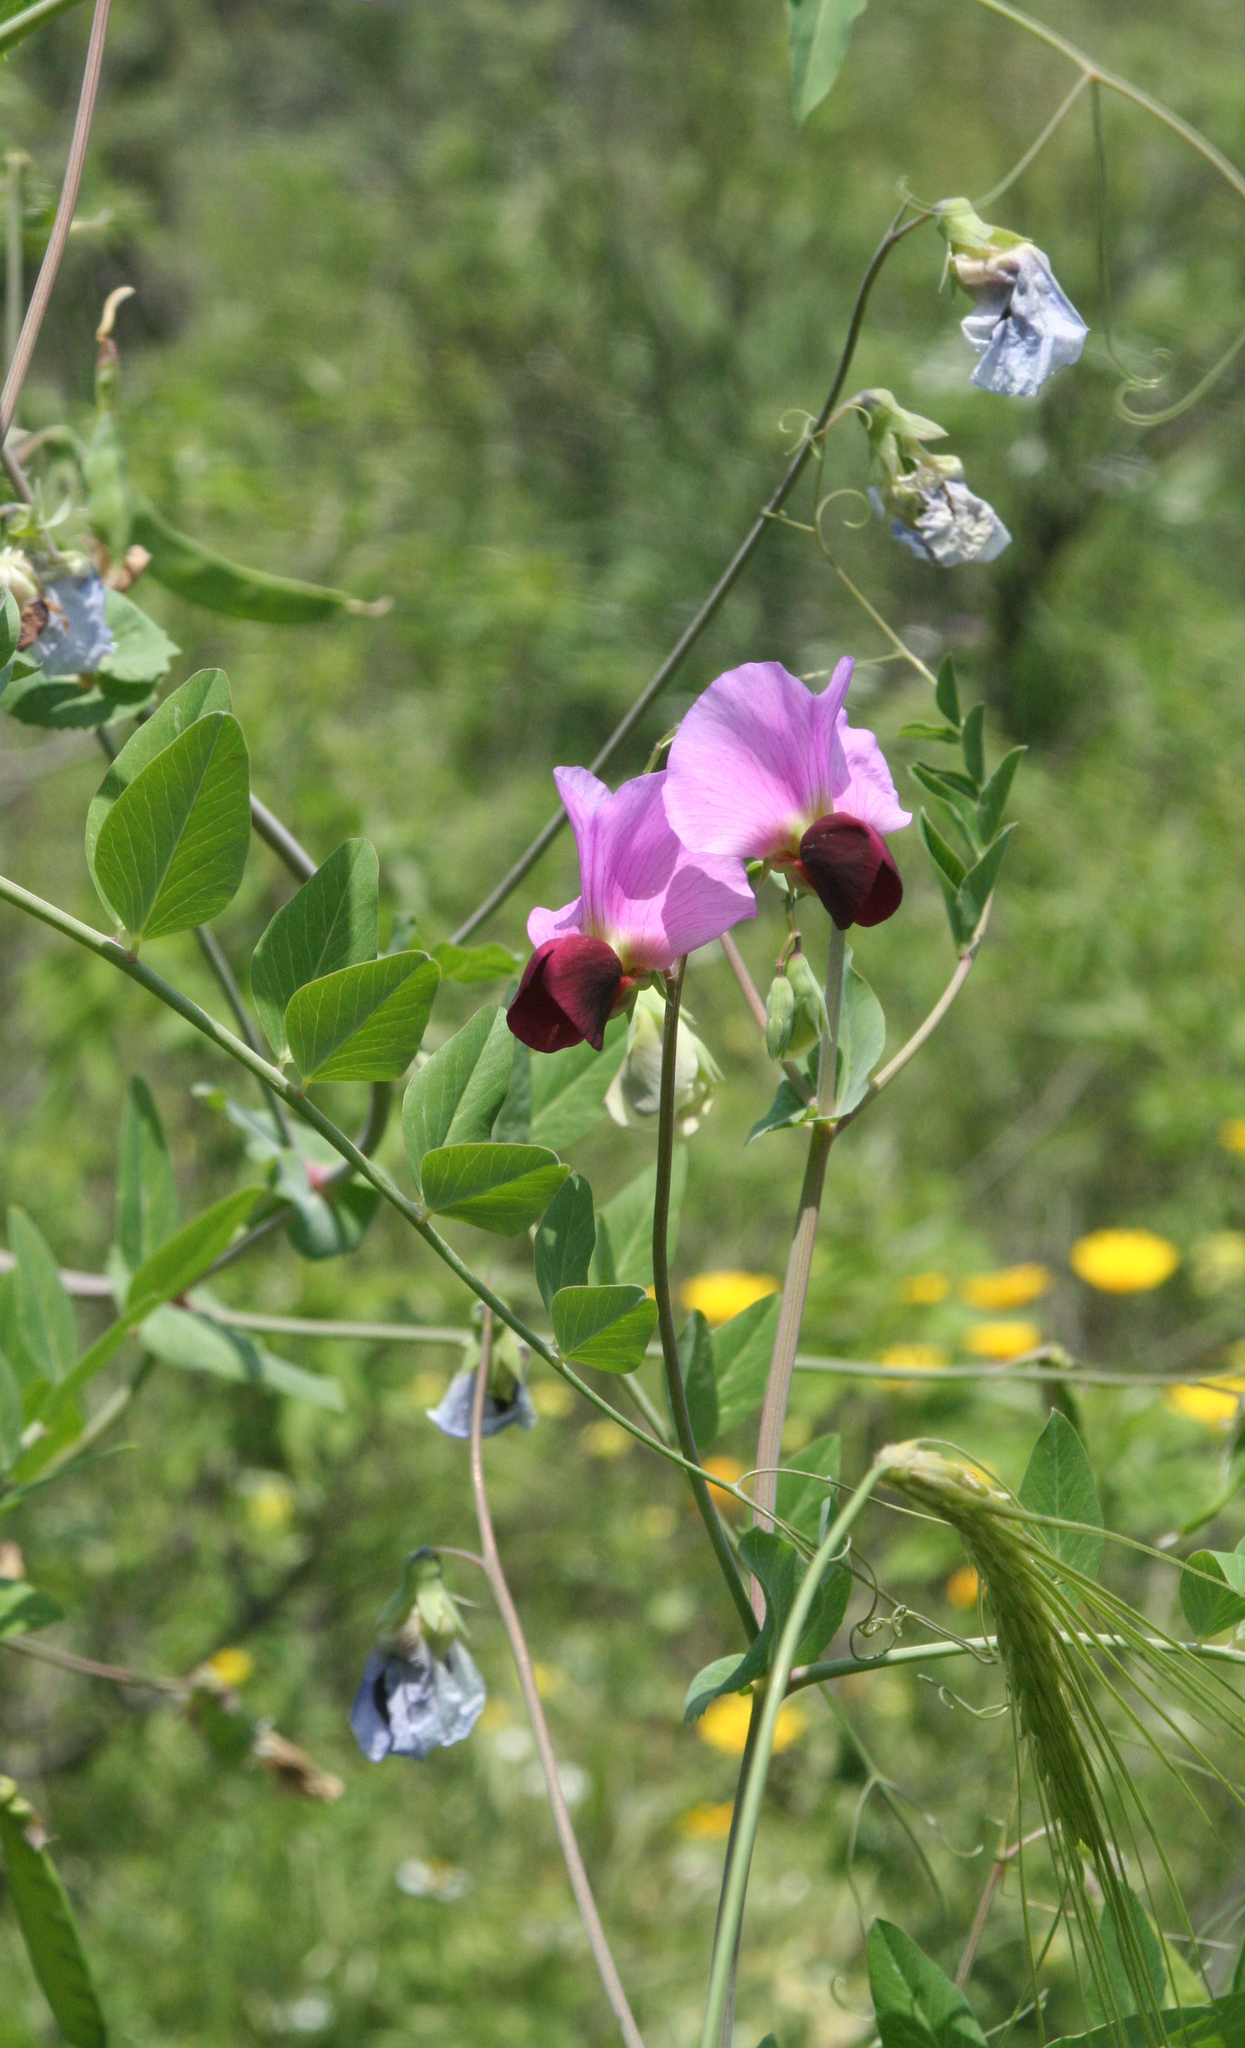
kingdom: Plantae
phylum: Tracheophyta
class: Magnoliopsida
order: Fabales
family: Fabaceae
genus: Lathyrus
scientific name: Lathyrus oleraceus
